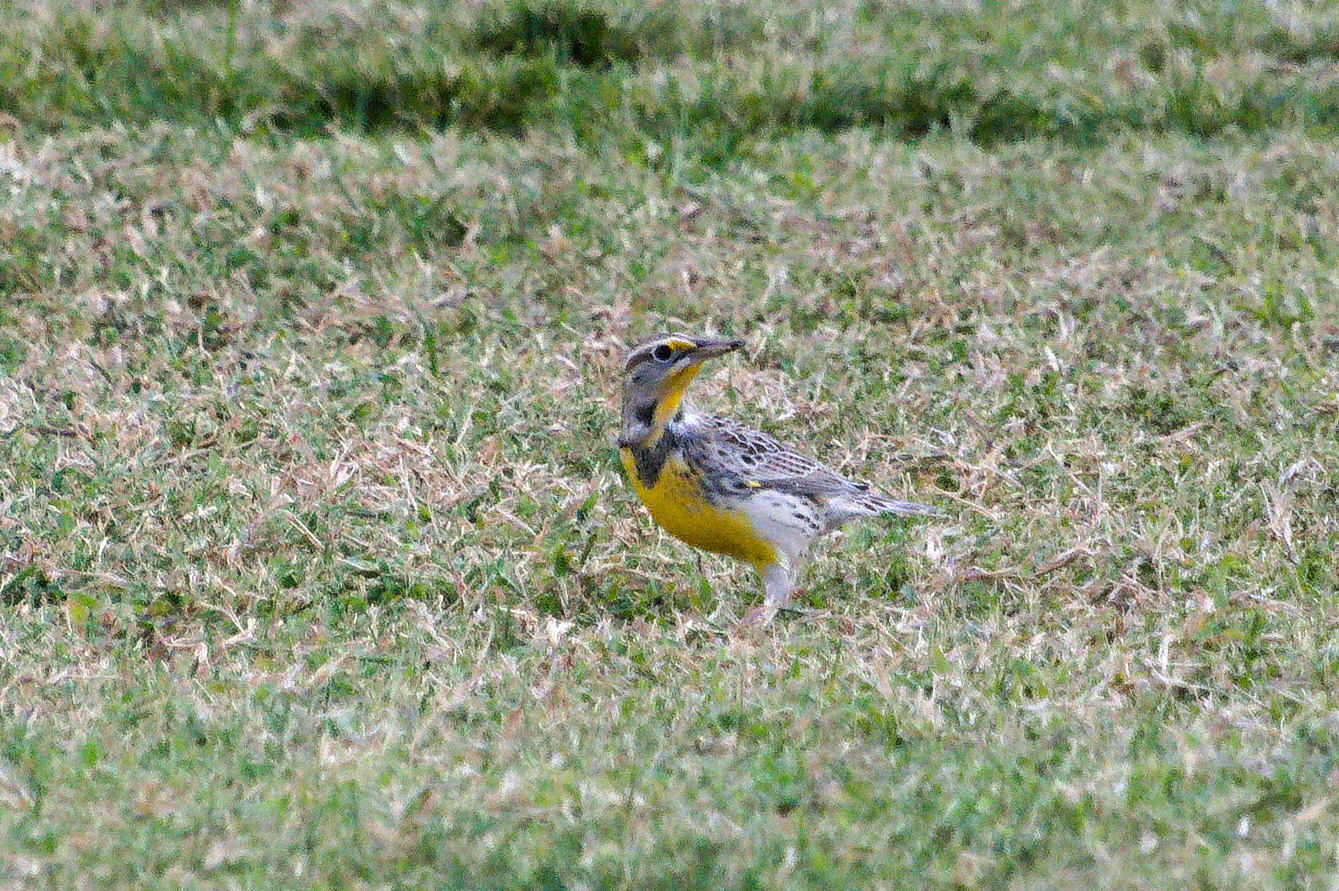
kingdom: Animalia
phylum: Chordata
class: Aves
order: Passeriformes
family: Icteridae
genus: Sturnella
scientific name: Sturnella neglecta
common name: Western meadowlark
